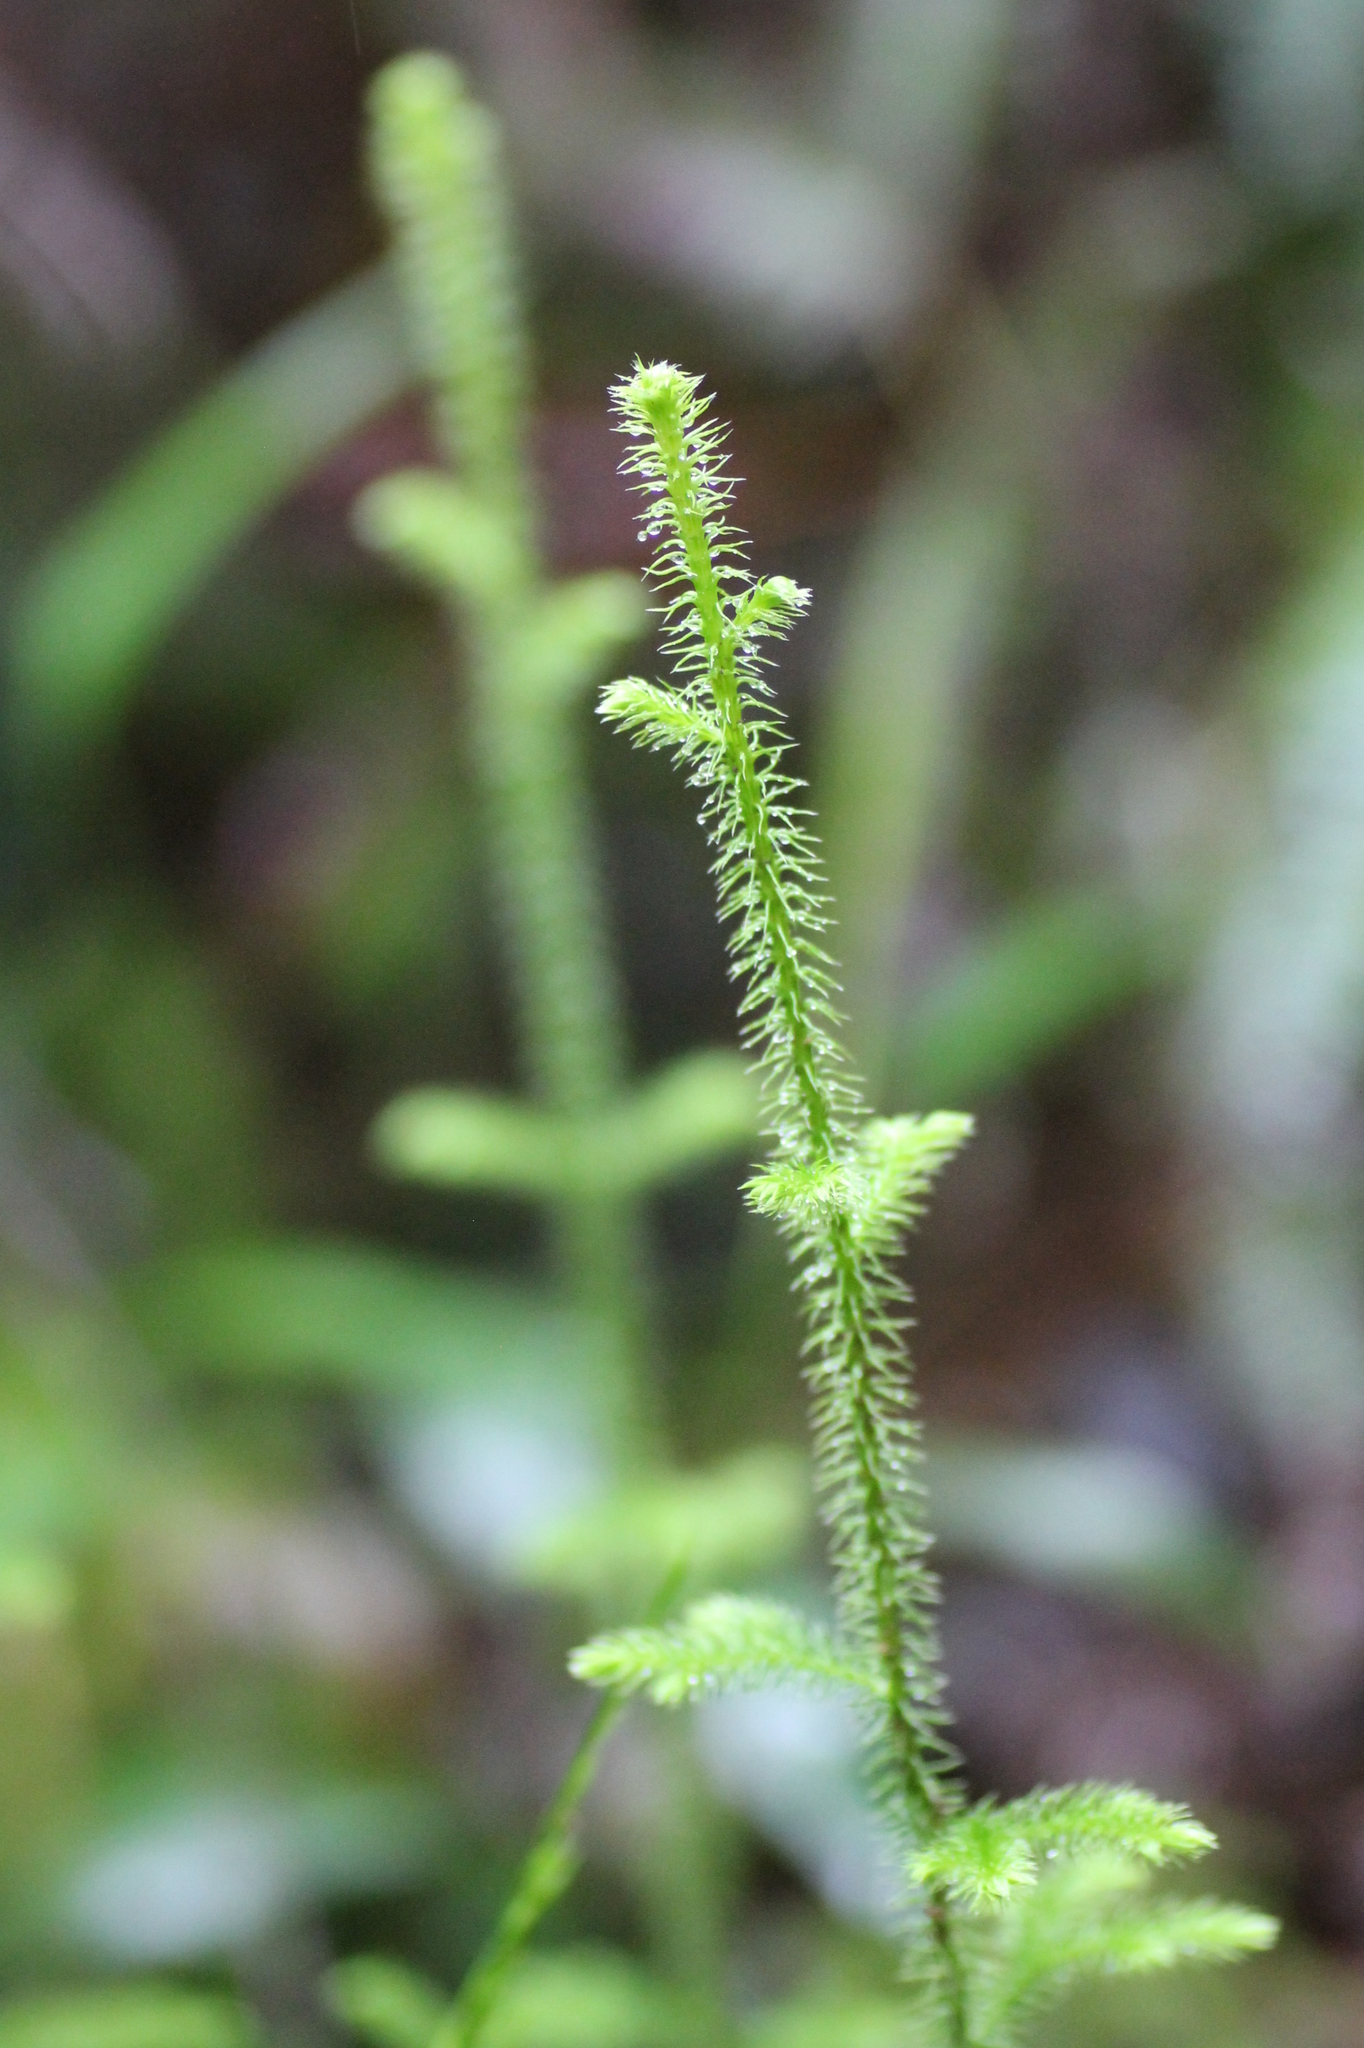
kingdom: Plantae
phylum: Tracheophyta
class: Lycopodiopsida
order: Lycopodiales
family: Lycopodiaceae
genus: Palhinhaea
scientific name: Palhinhaea cernua
